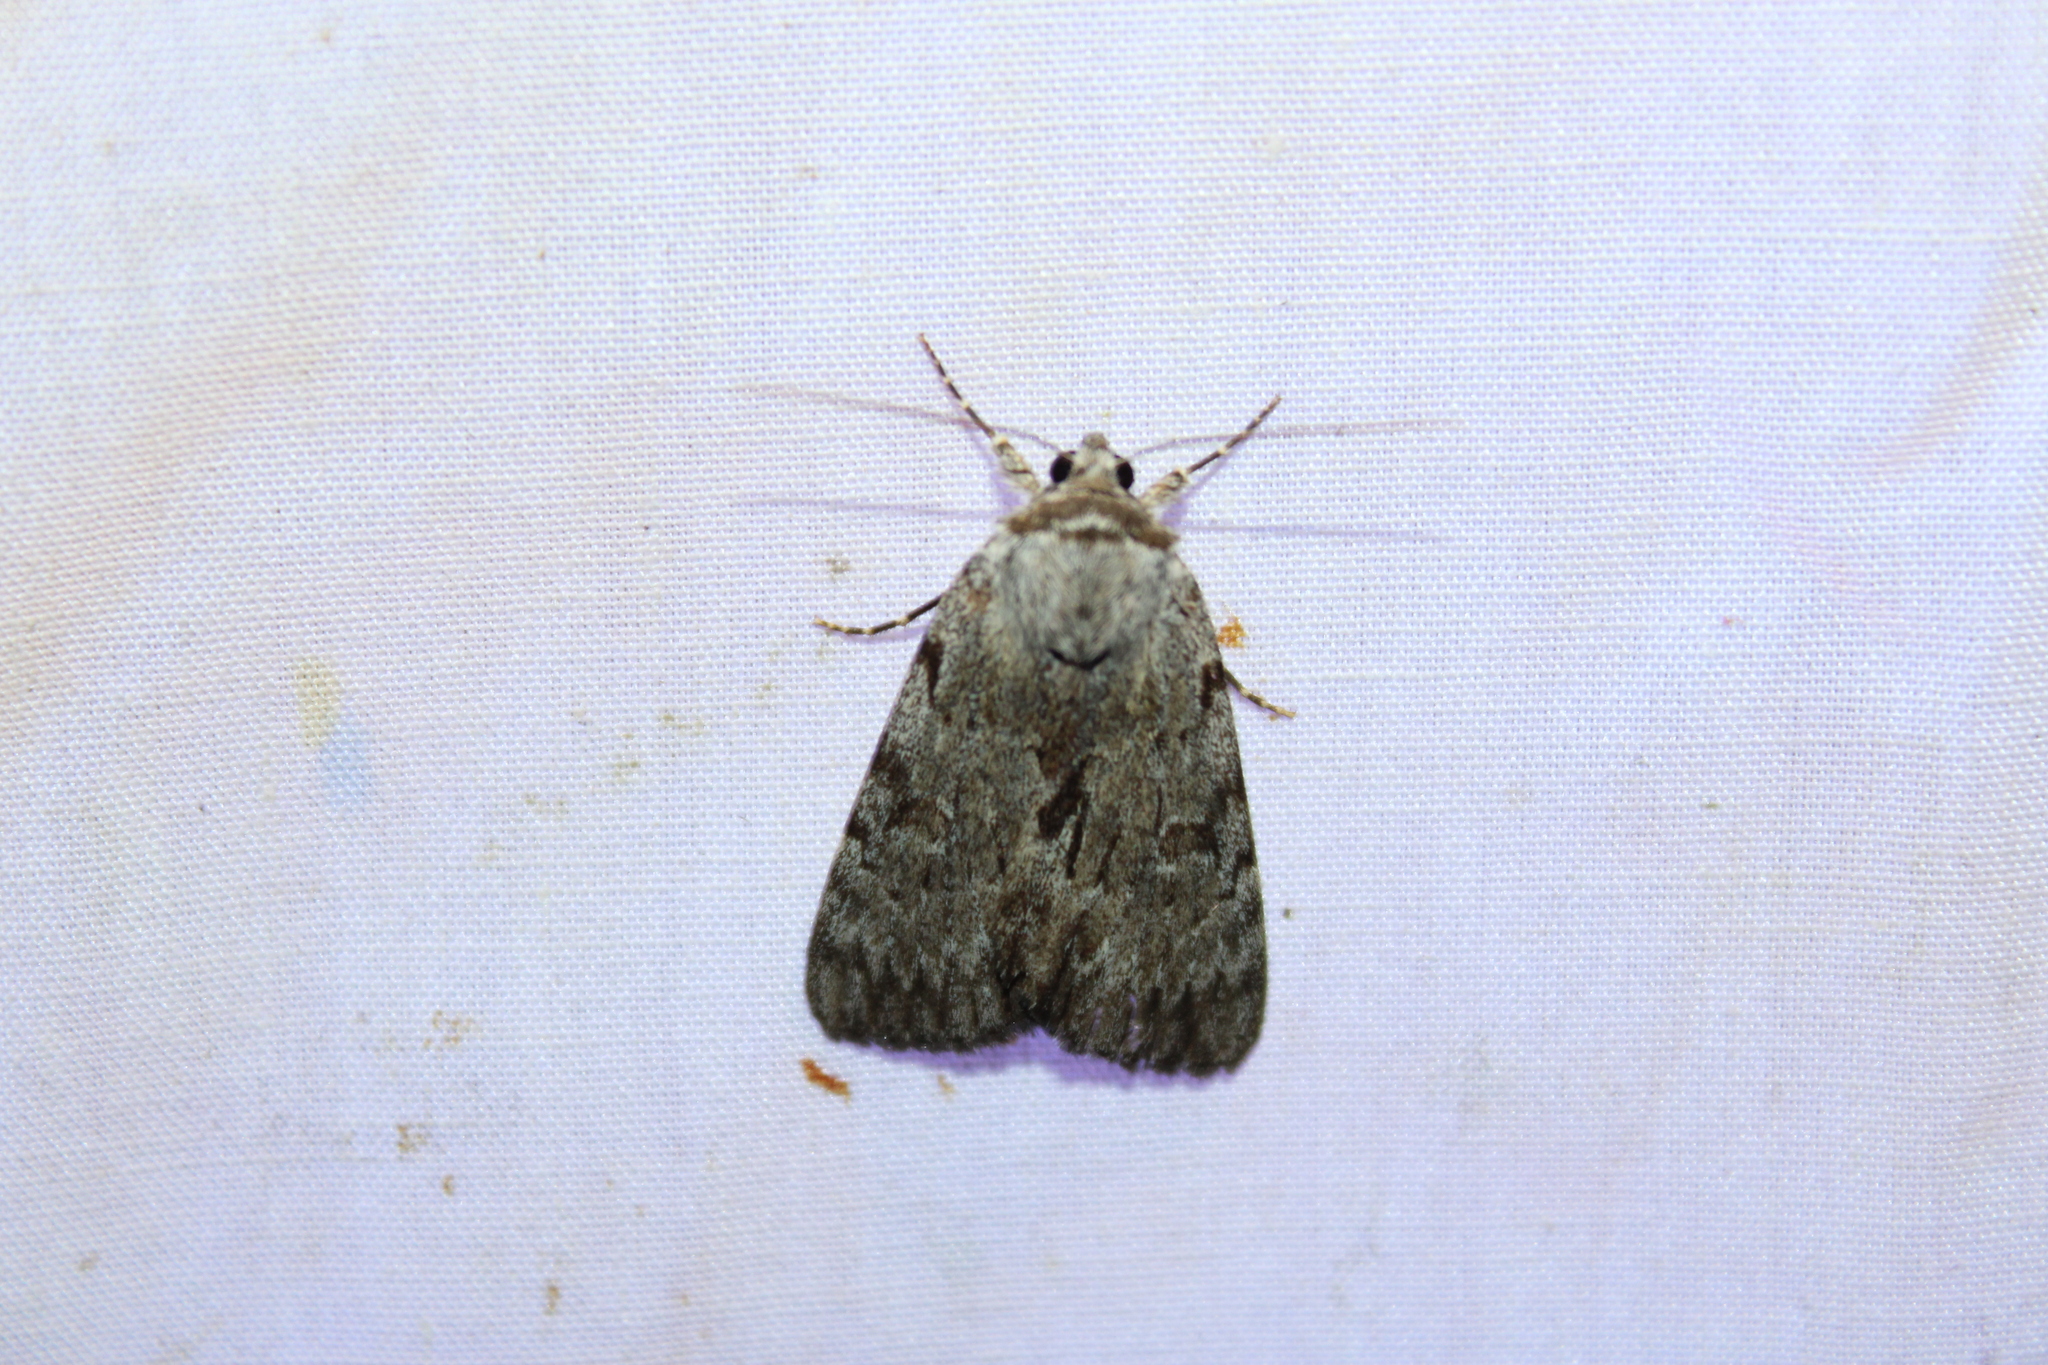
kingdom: Animalia
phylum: Arthropoda
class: Insecta
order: Lepidoptera
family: Erebidae
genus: Catocala
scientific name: Catocala sordida
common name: Sordid underwing
